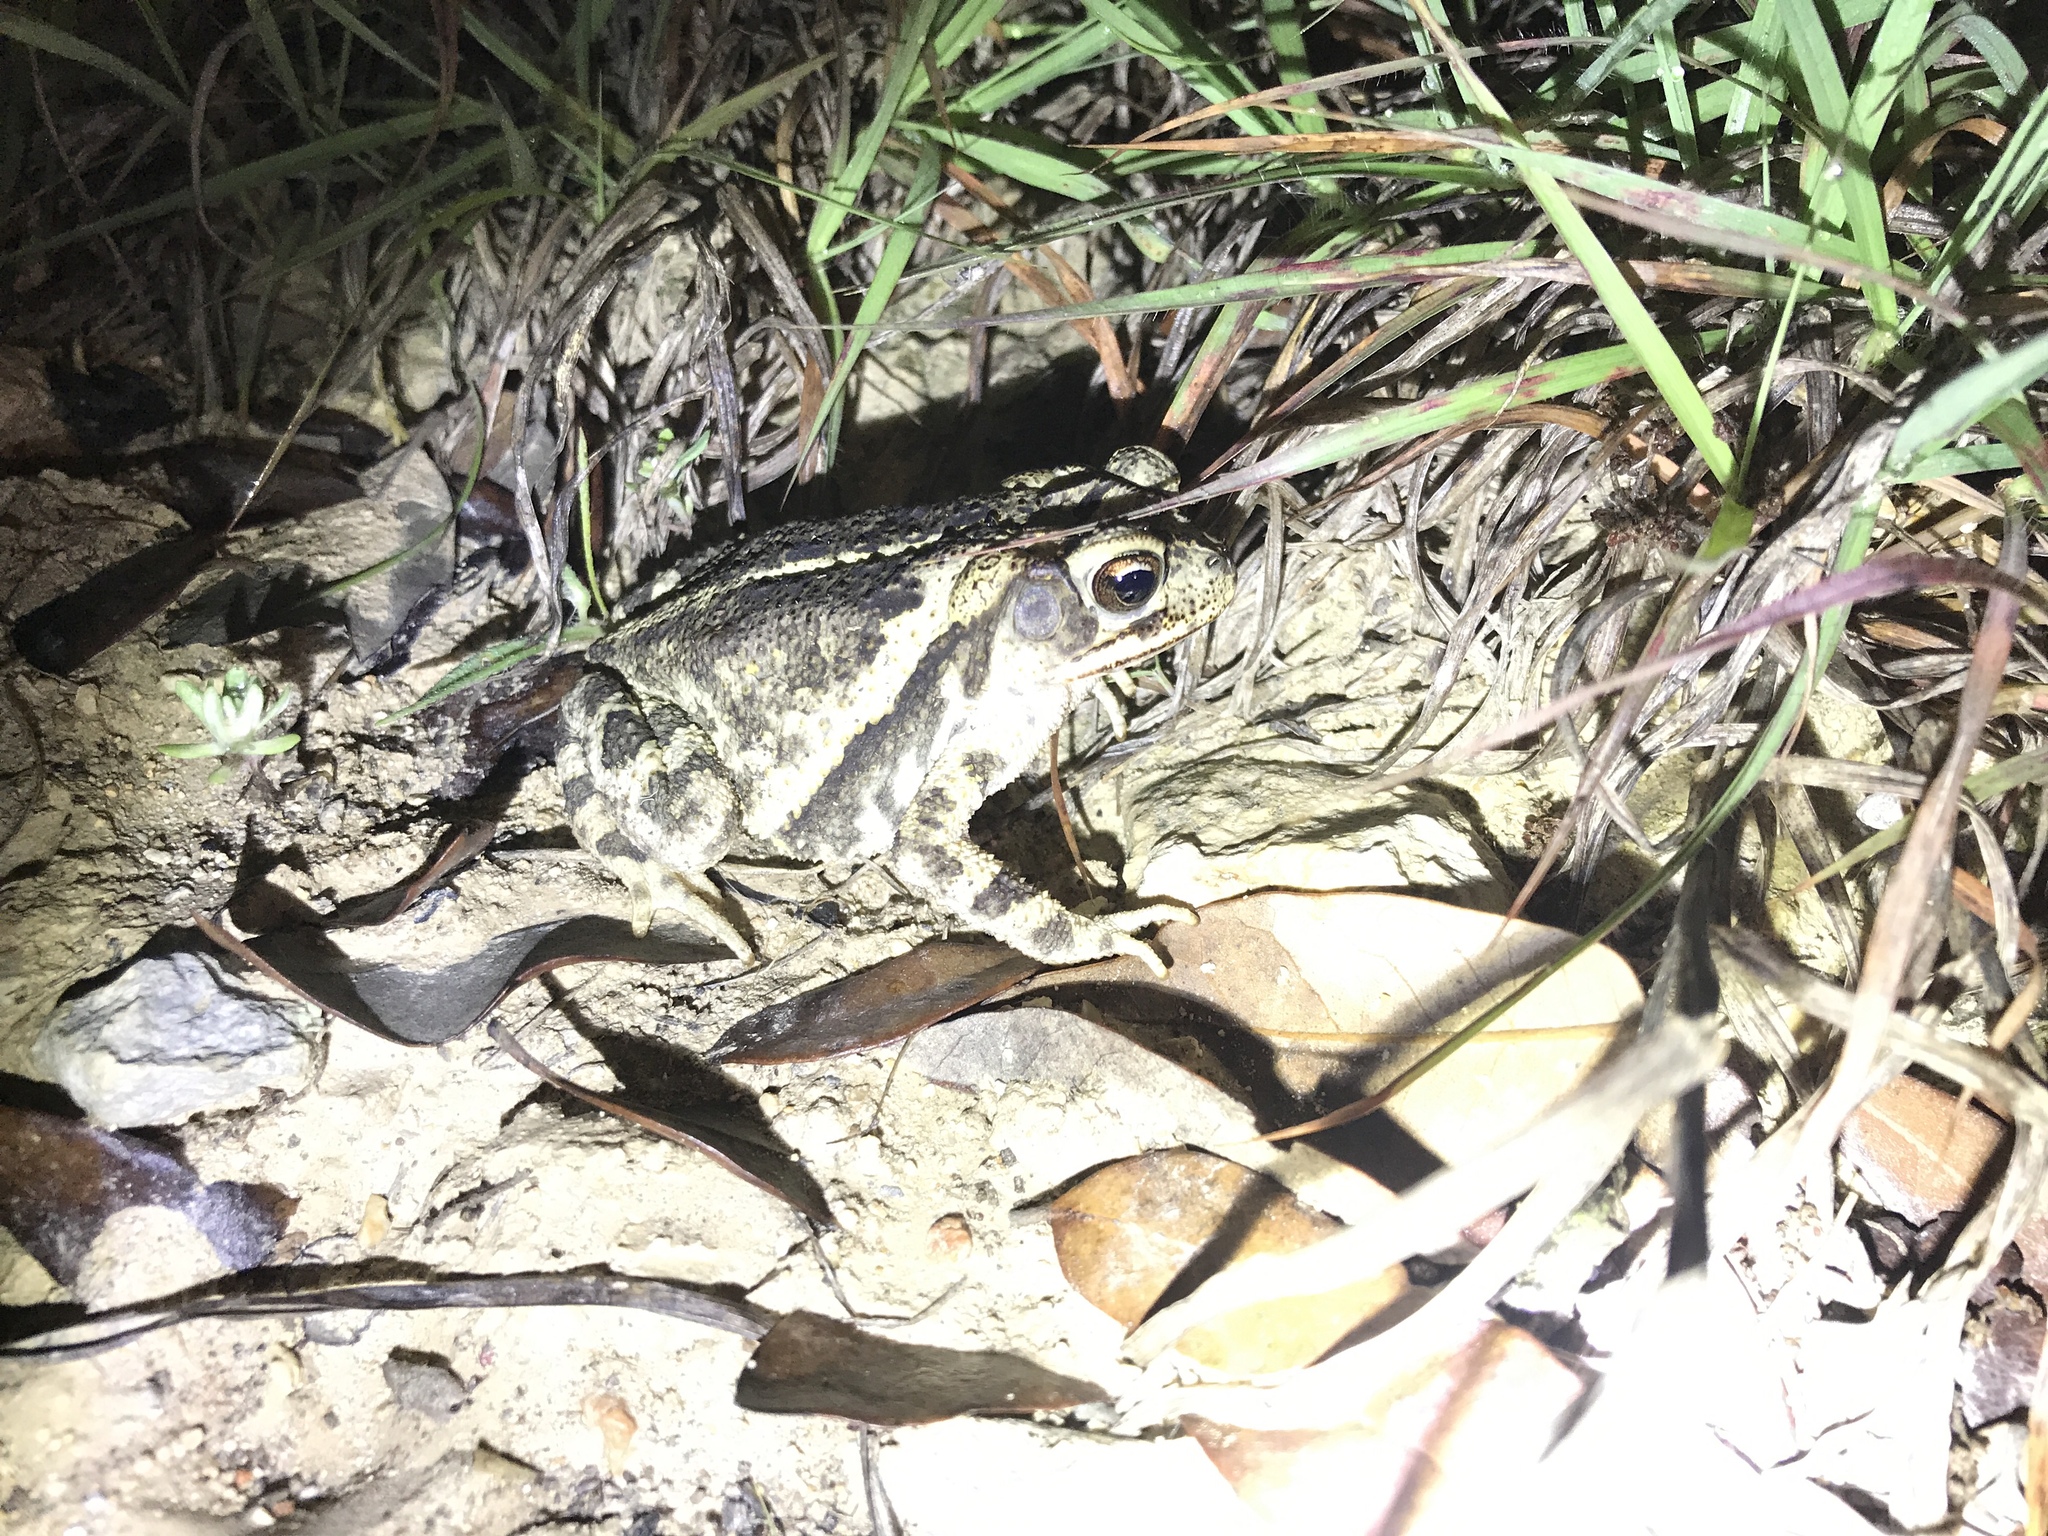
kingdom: Animalia
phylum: Chordata
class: Amphibia
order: Anura
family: Bufonidae
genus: Incilius
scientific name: Incilius nebulifer
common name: Gulf coast toad
